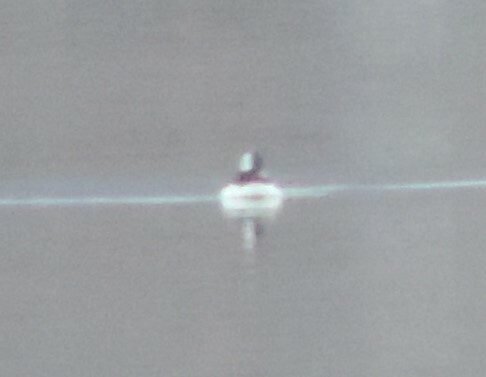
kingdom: Animalia
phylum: Chordata
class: Aves
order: Anseriformes
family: Anatidae
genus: Bucephala
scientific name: Bucephala albeola
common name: Bufflehead
